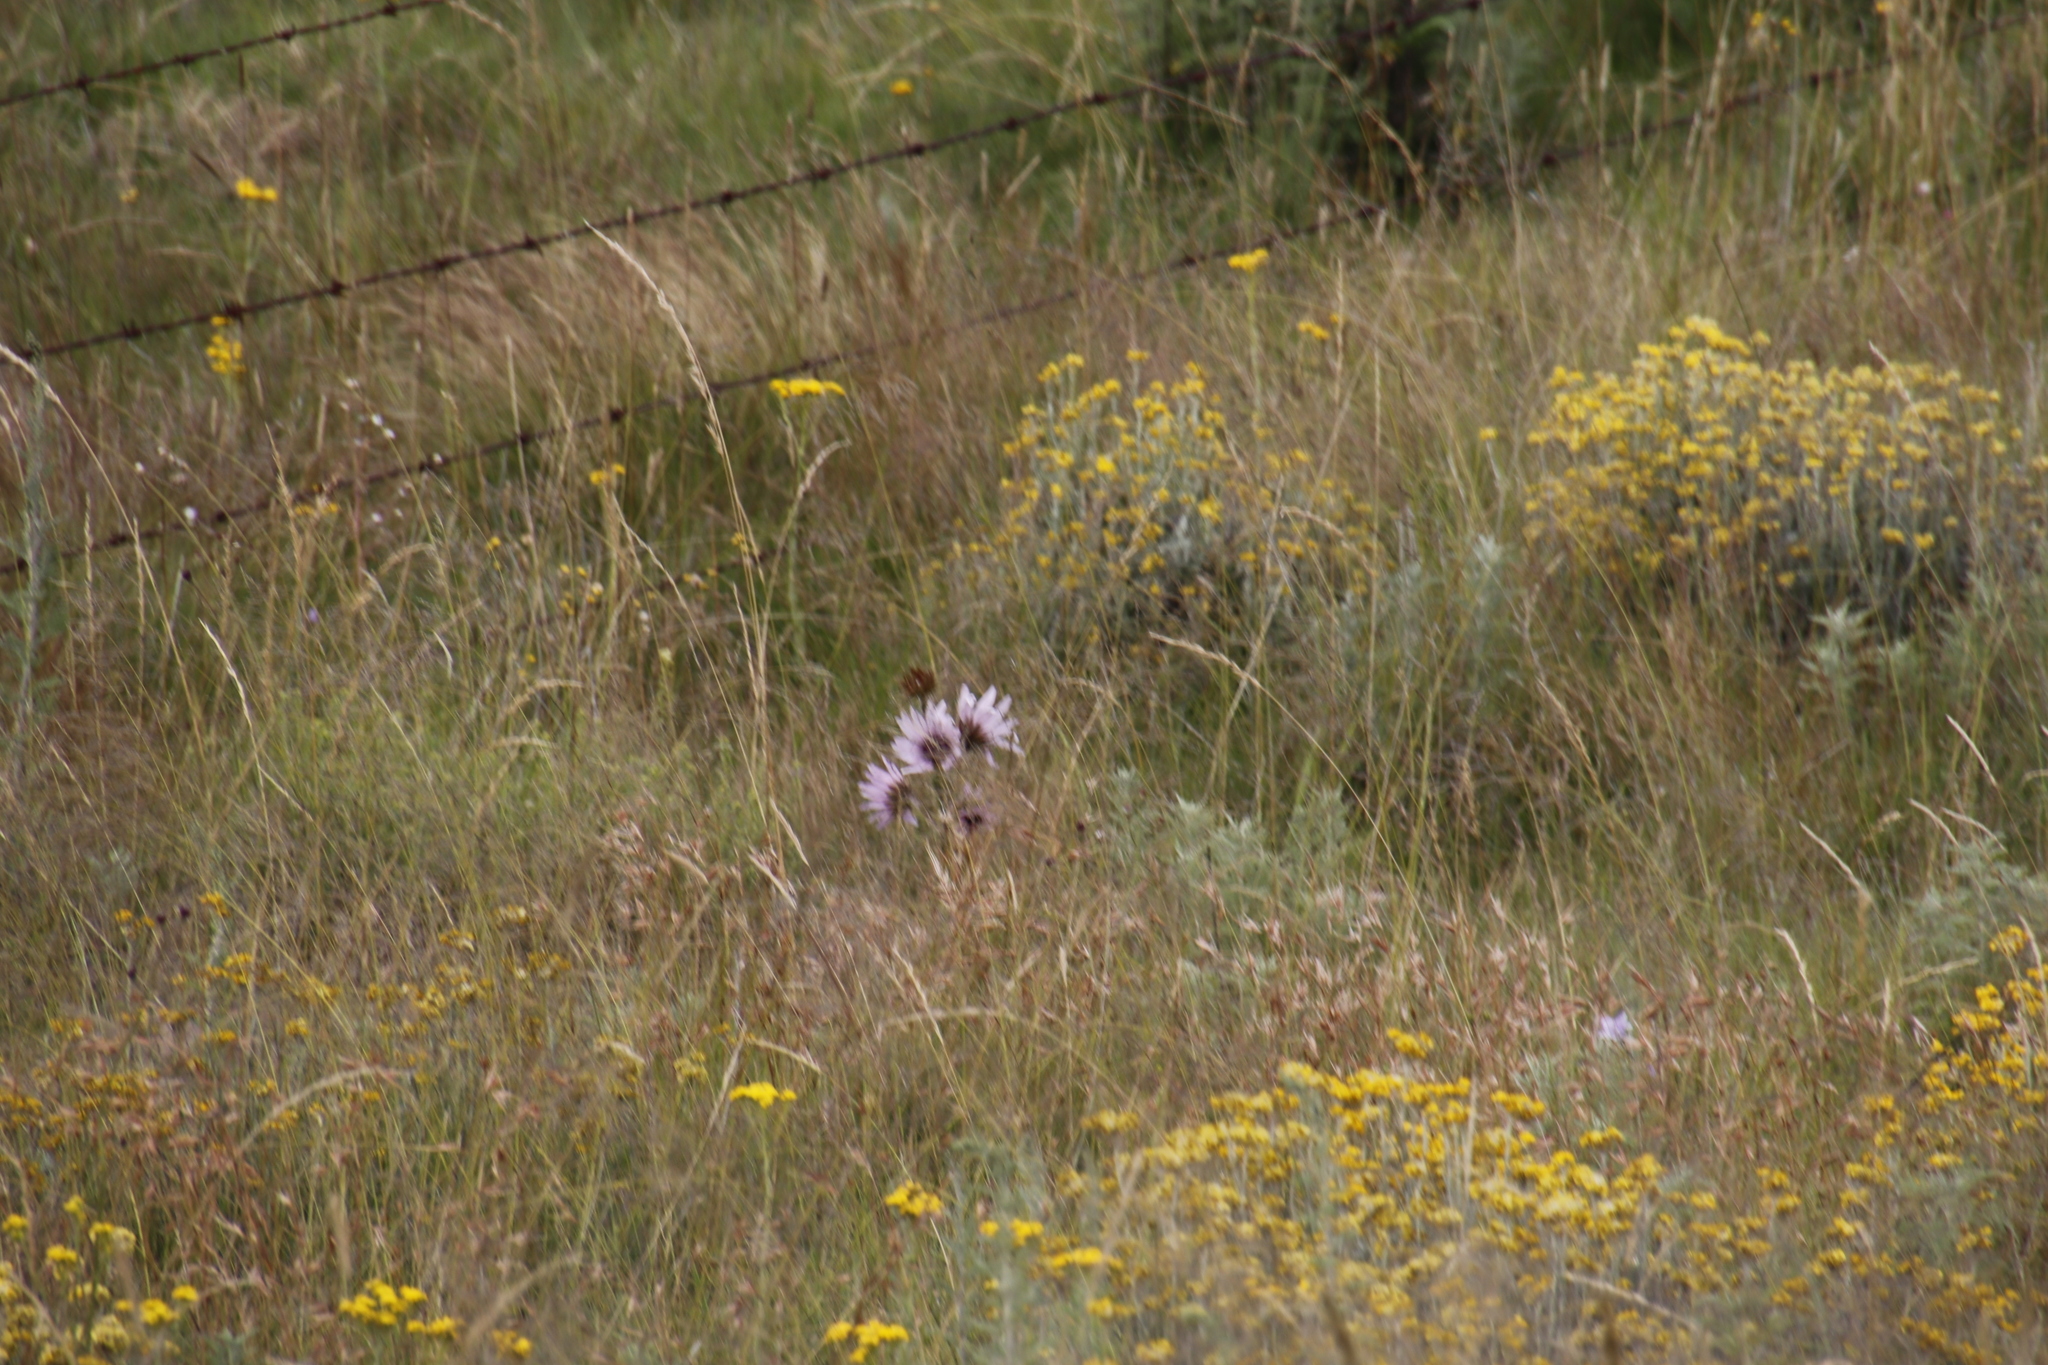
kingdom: Plantae
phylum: Tracheophyta
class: Magnoliopsida
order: Asterales
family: Asteraceae
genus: Berkheya
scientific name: Berkheya purpurea
